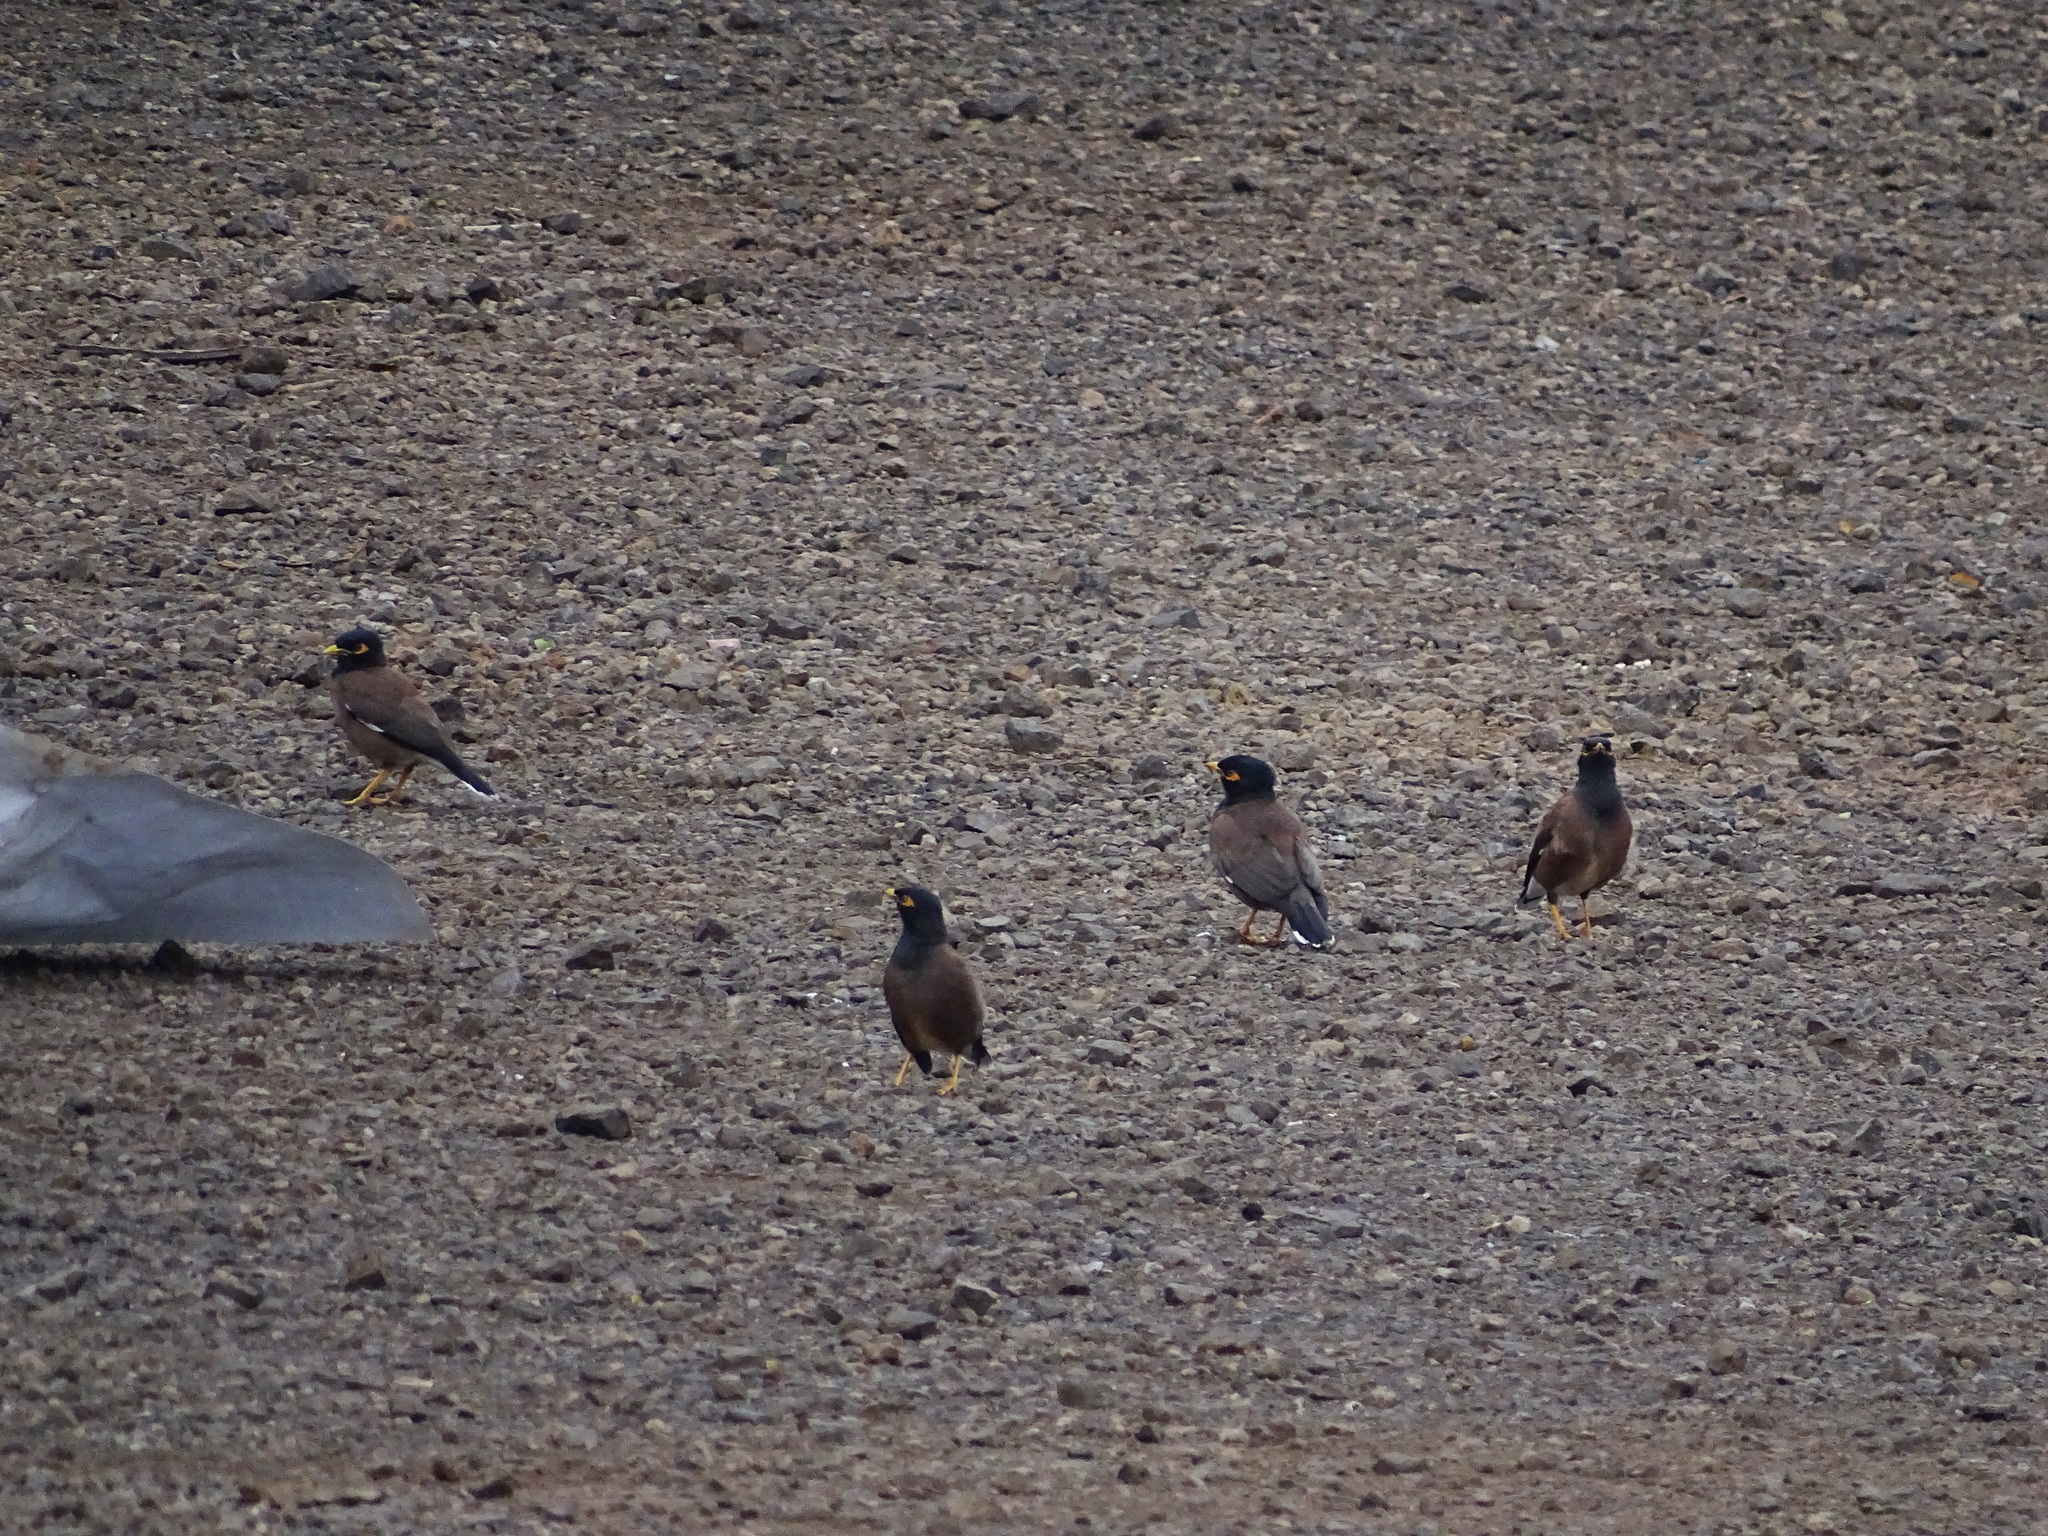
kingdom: Animalia
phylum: Chordata
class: Aves
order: Passeriformes
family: Sturnidae
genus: Acridotheres
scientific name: Acridotheres tristis
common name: Common myna
